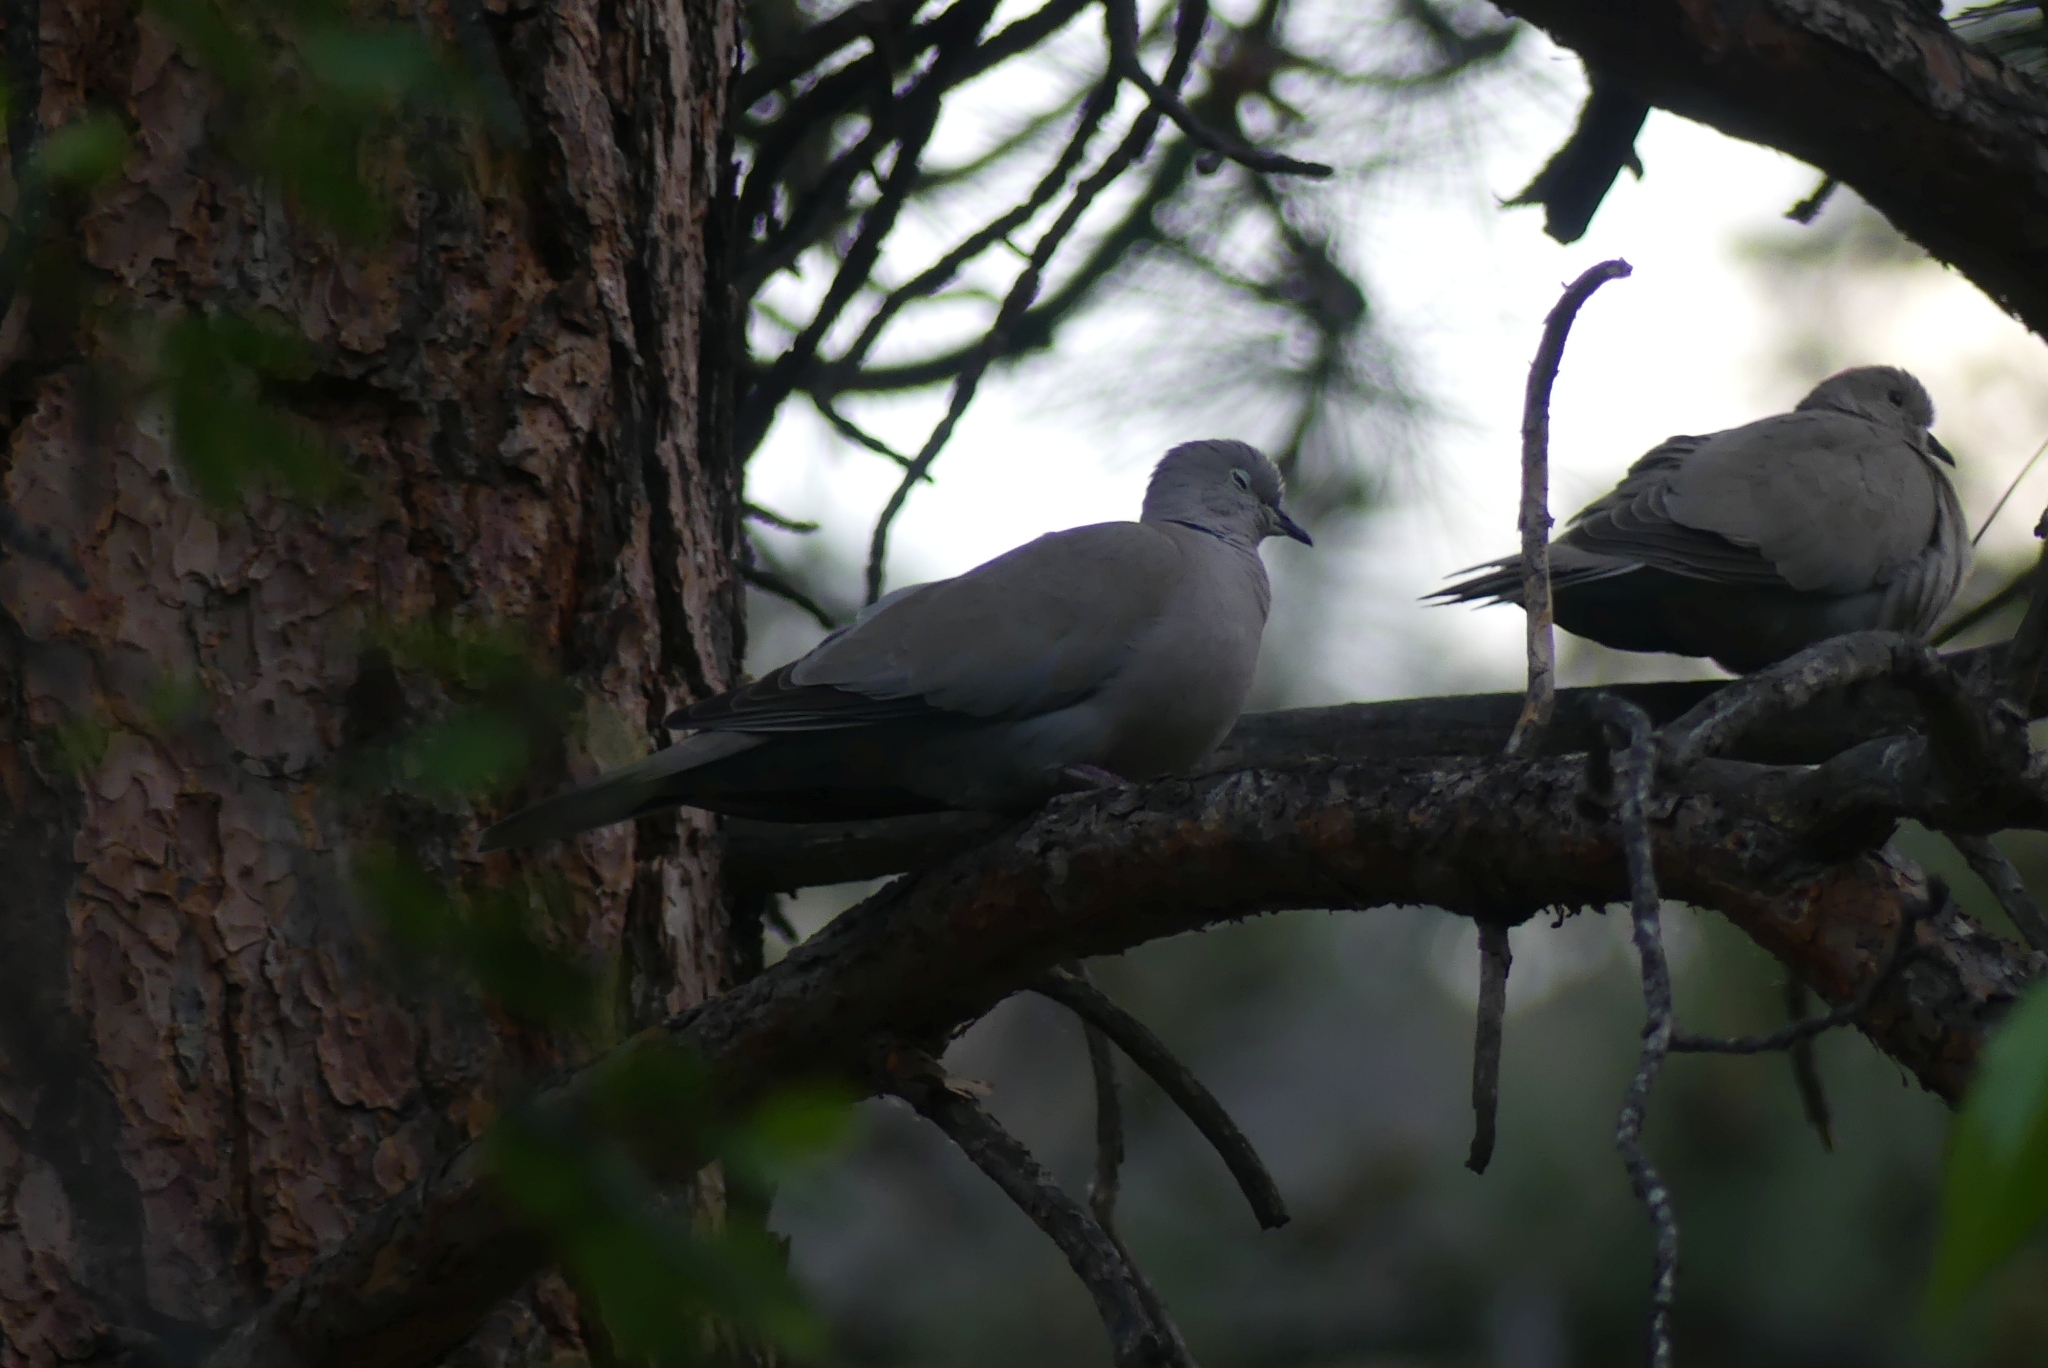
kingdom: Animalia
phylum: Chordata
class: Aves
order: Columbiformes
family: Columbidae
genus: Streptopelia
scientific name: Streptopelia decaocto
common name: Eurasian collared dove
